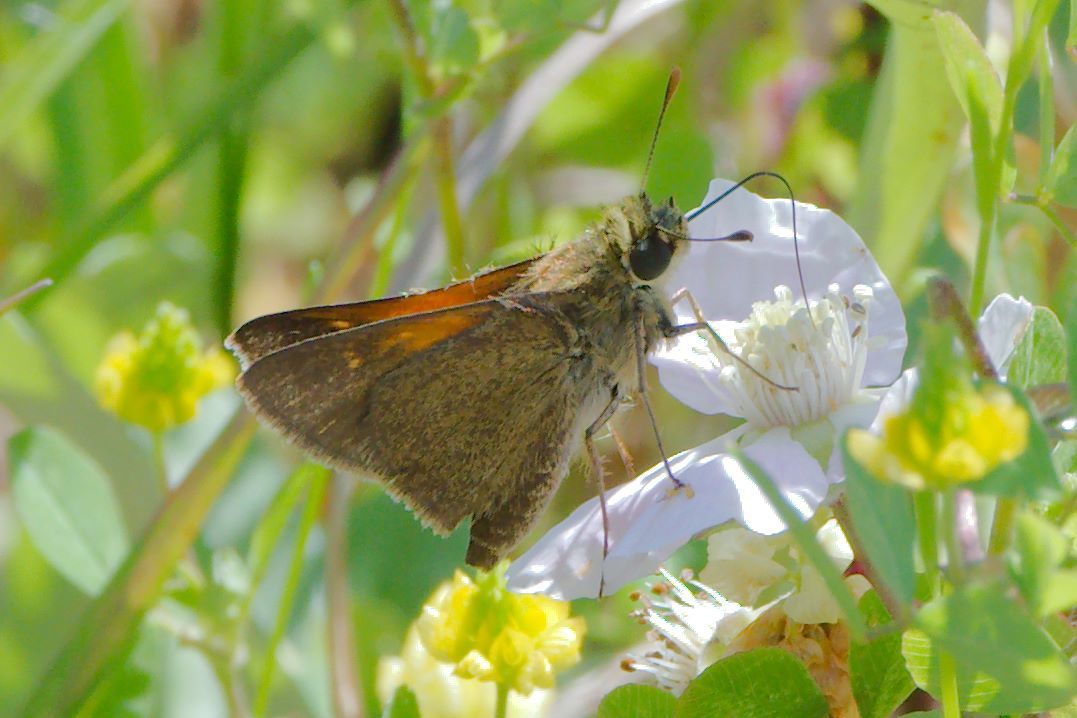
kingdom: Animalia
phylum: Arthropoda
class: Insecta
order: Lepidoptera
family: Hesperiidae
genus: Polites
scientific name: Polites themistocles
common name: Tawny-edged skipper
